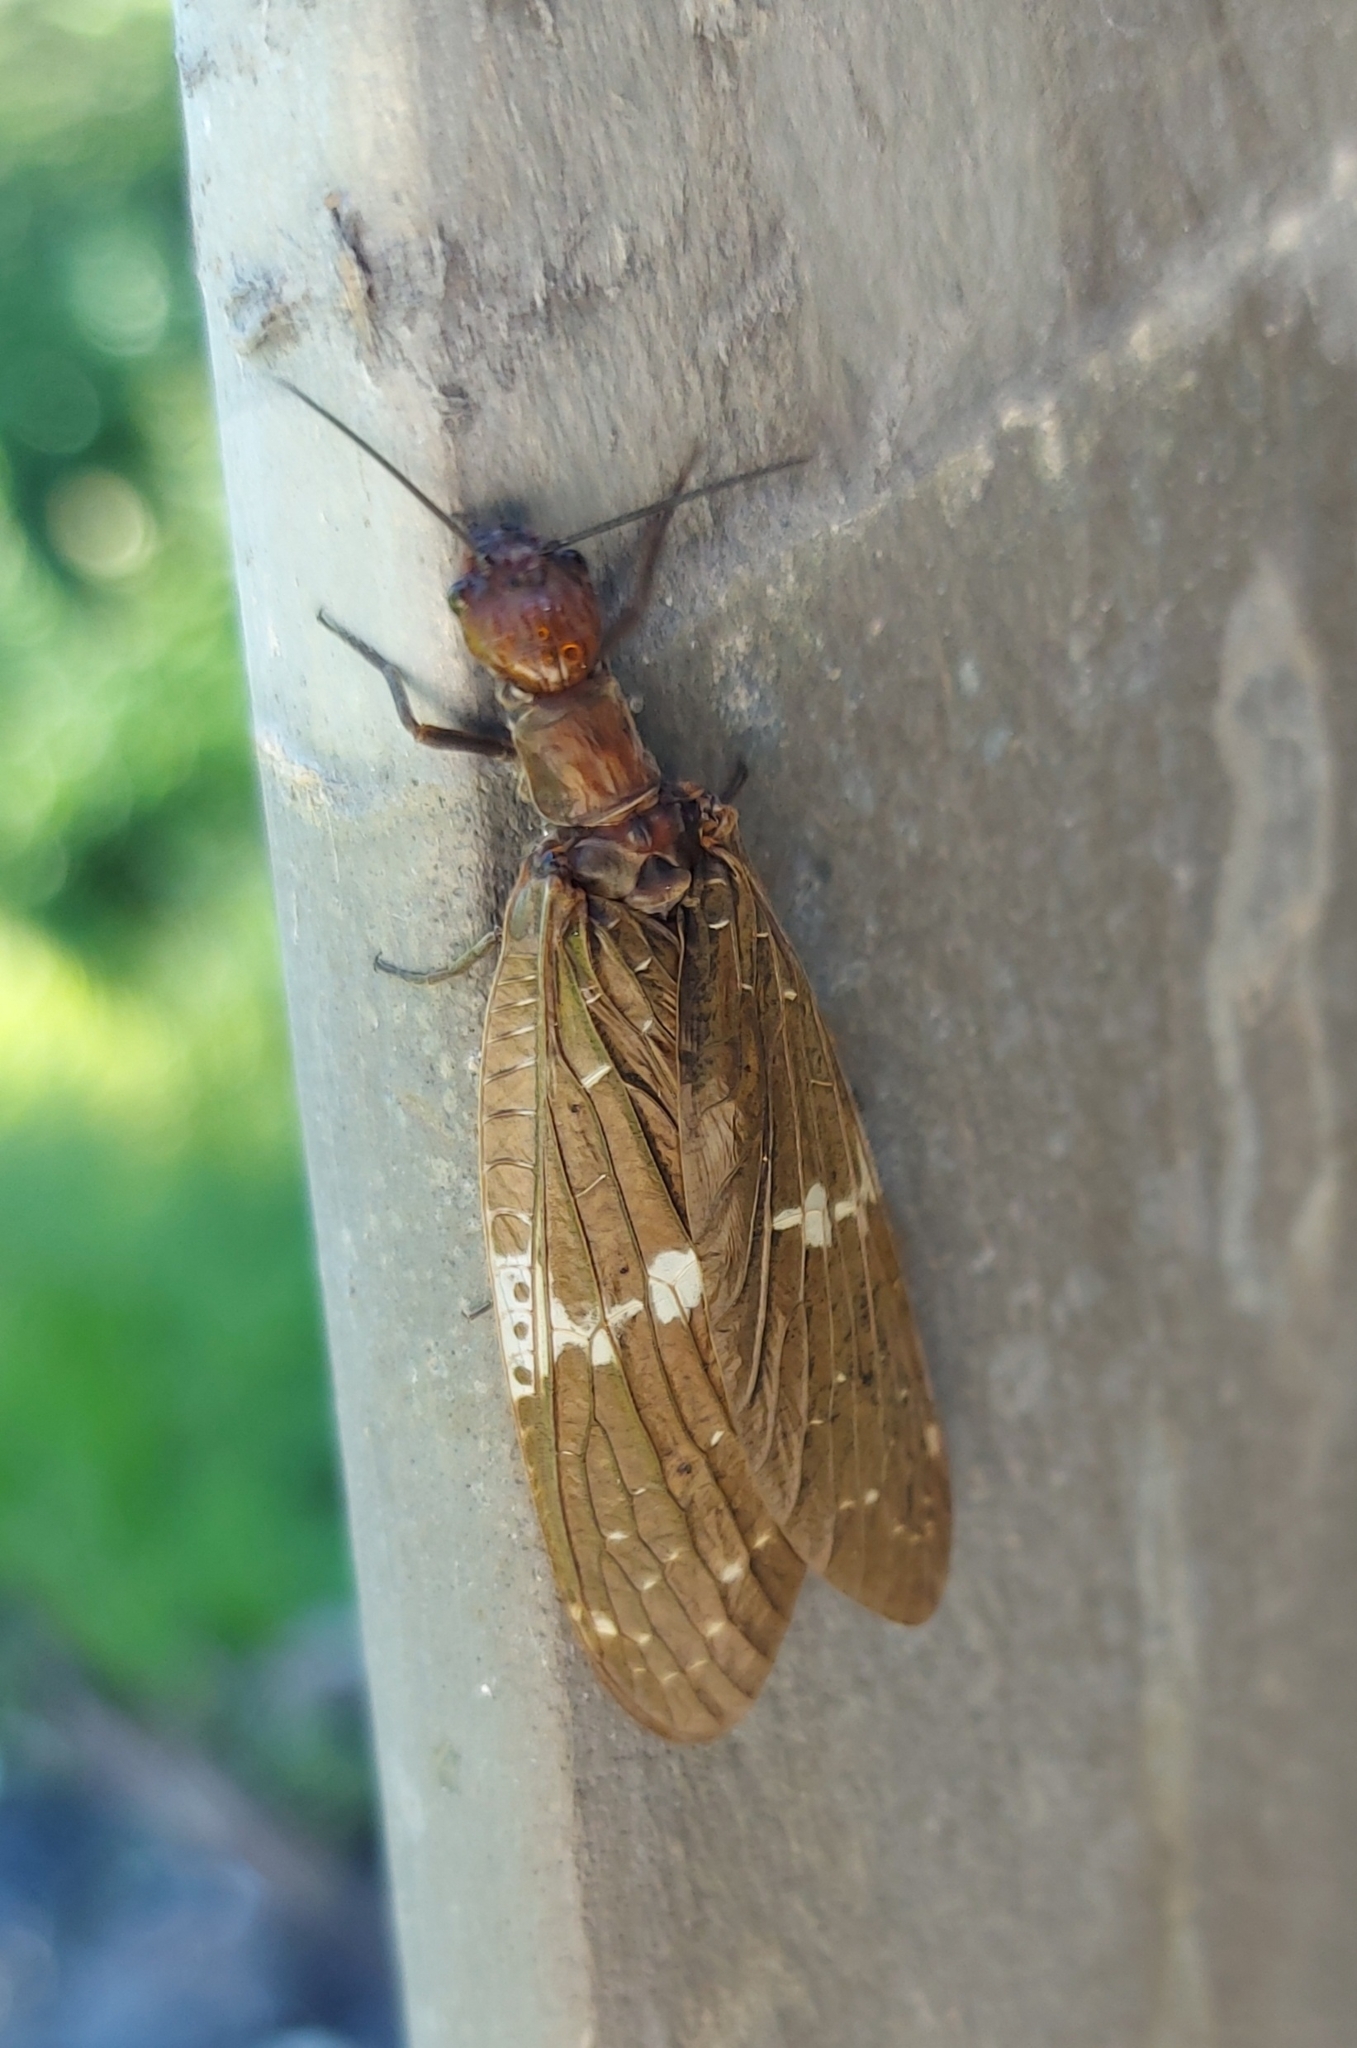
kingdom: Animalia
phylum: Arthropoda
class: Insecta
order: Megaloptera
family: Corydalidae
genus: Nigronia
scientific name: Nigronia serricornis
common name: Serrate dark fishfly
